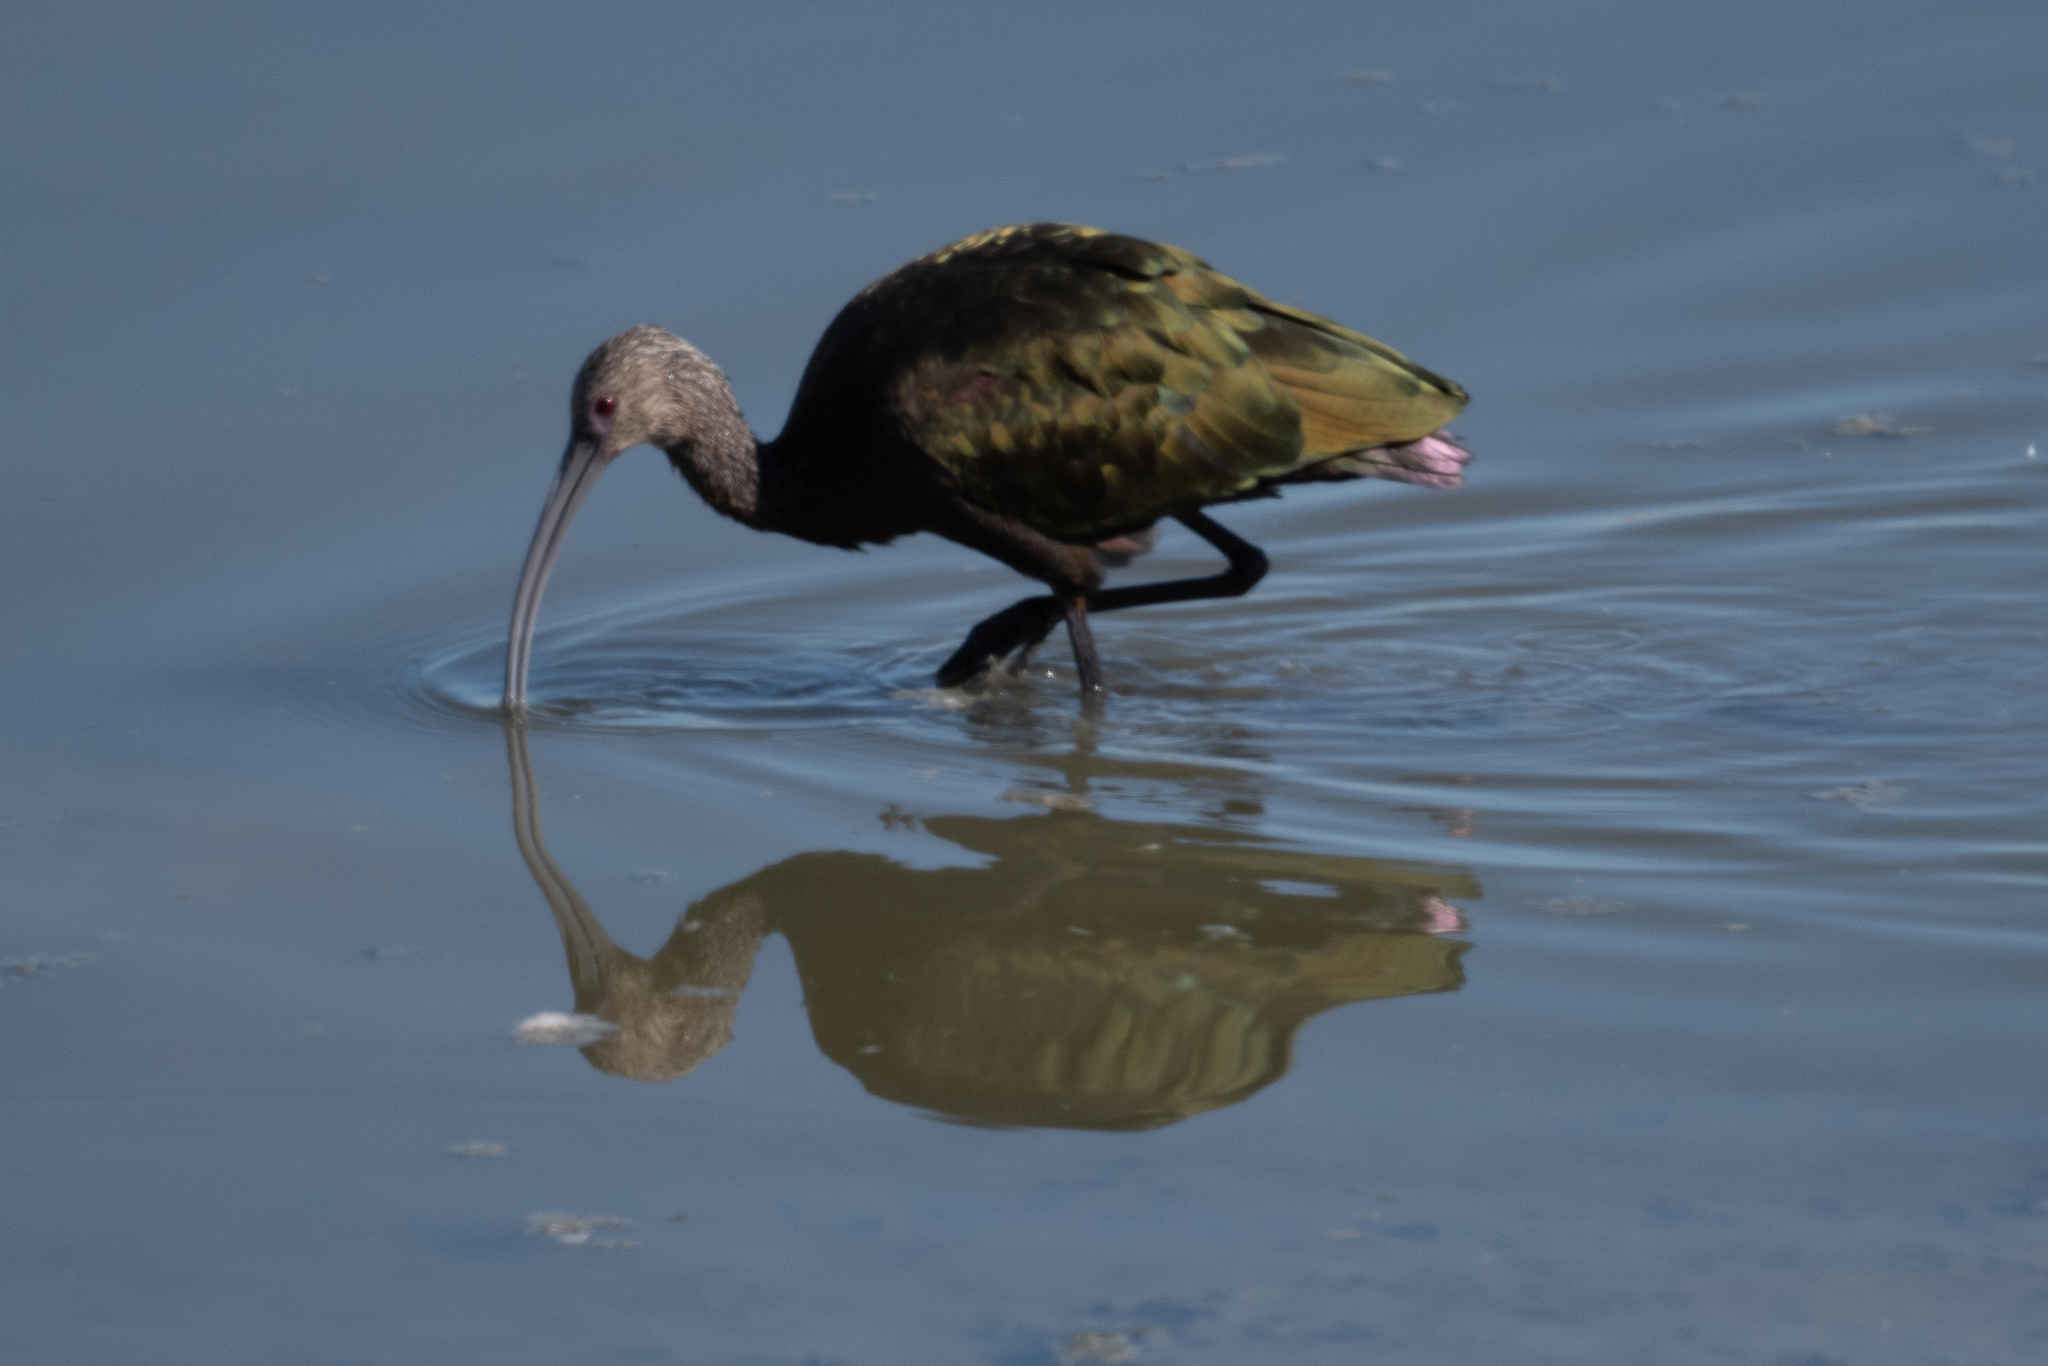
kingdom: Animalia
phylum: Chordata
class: Aves
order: Pelecaniformes
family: Threskiornithidae
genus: Plegadis
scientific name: Plegadis chihi
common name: White-faced ibis
